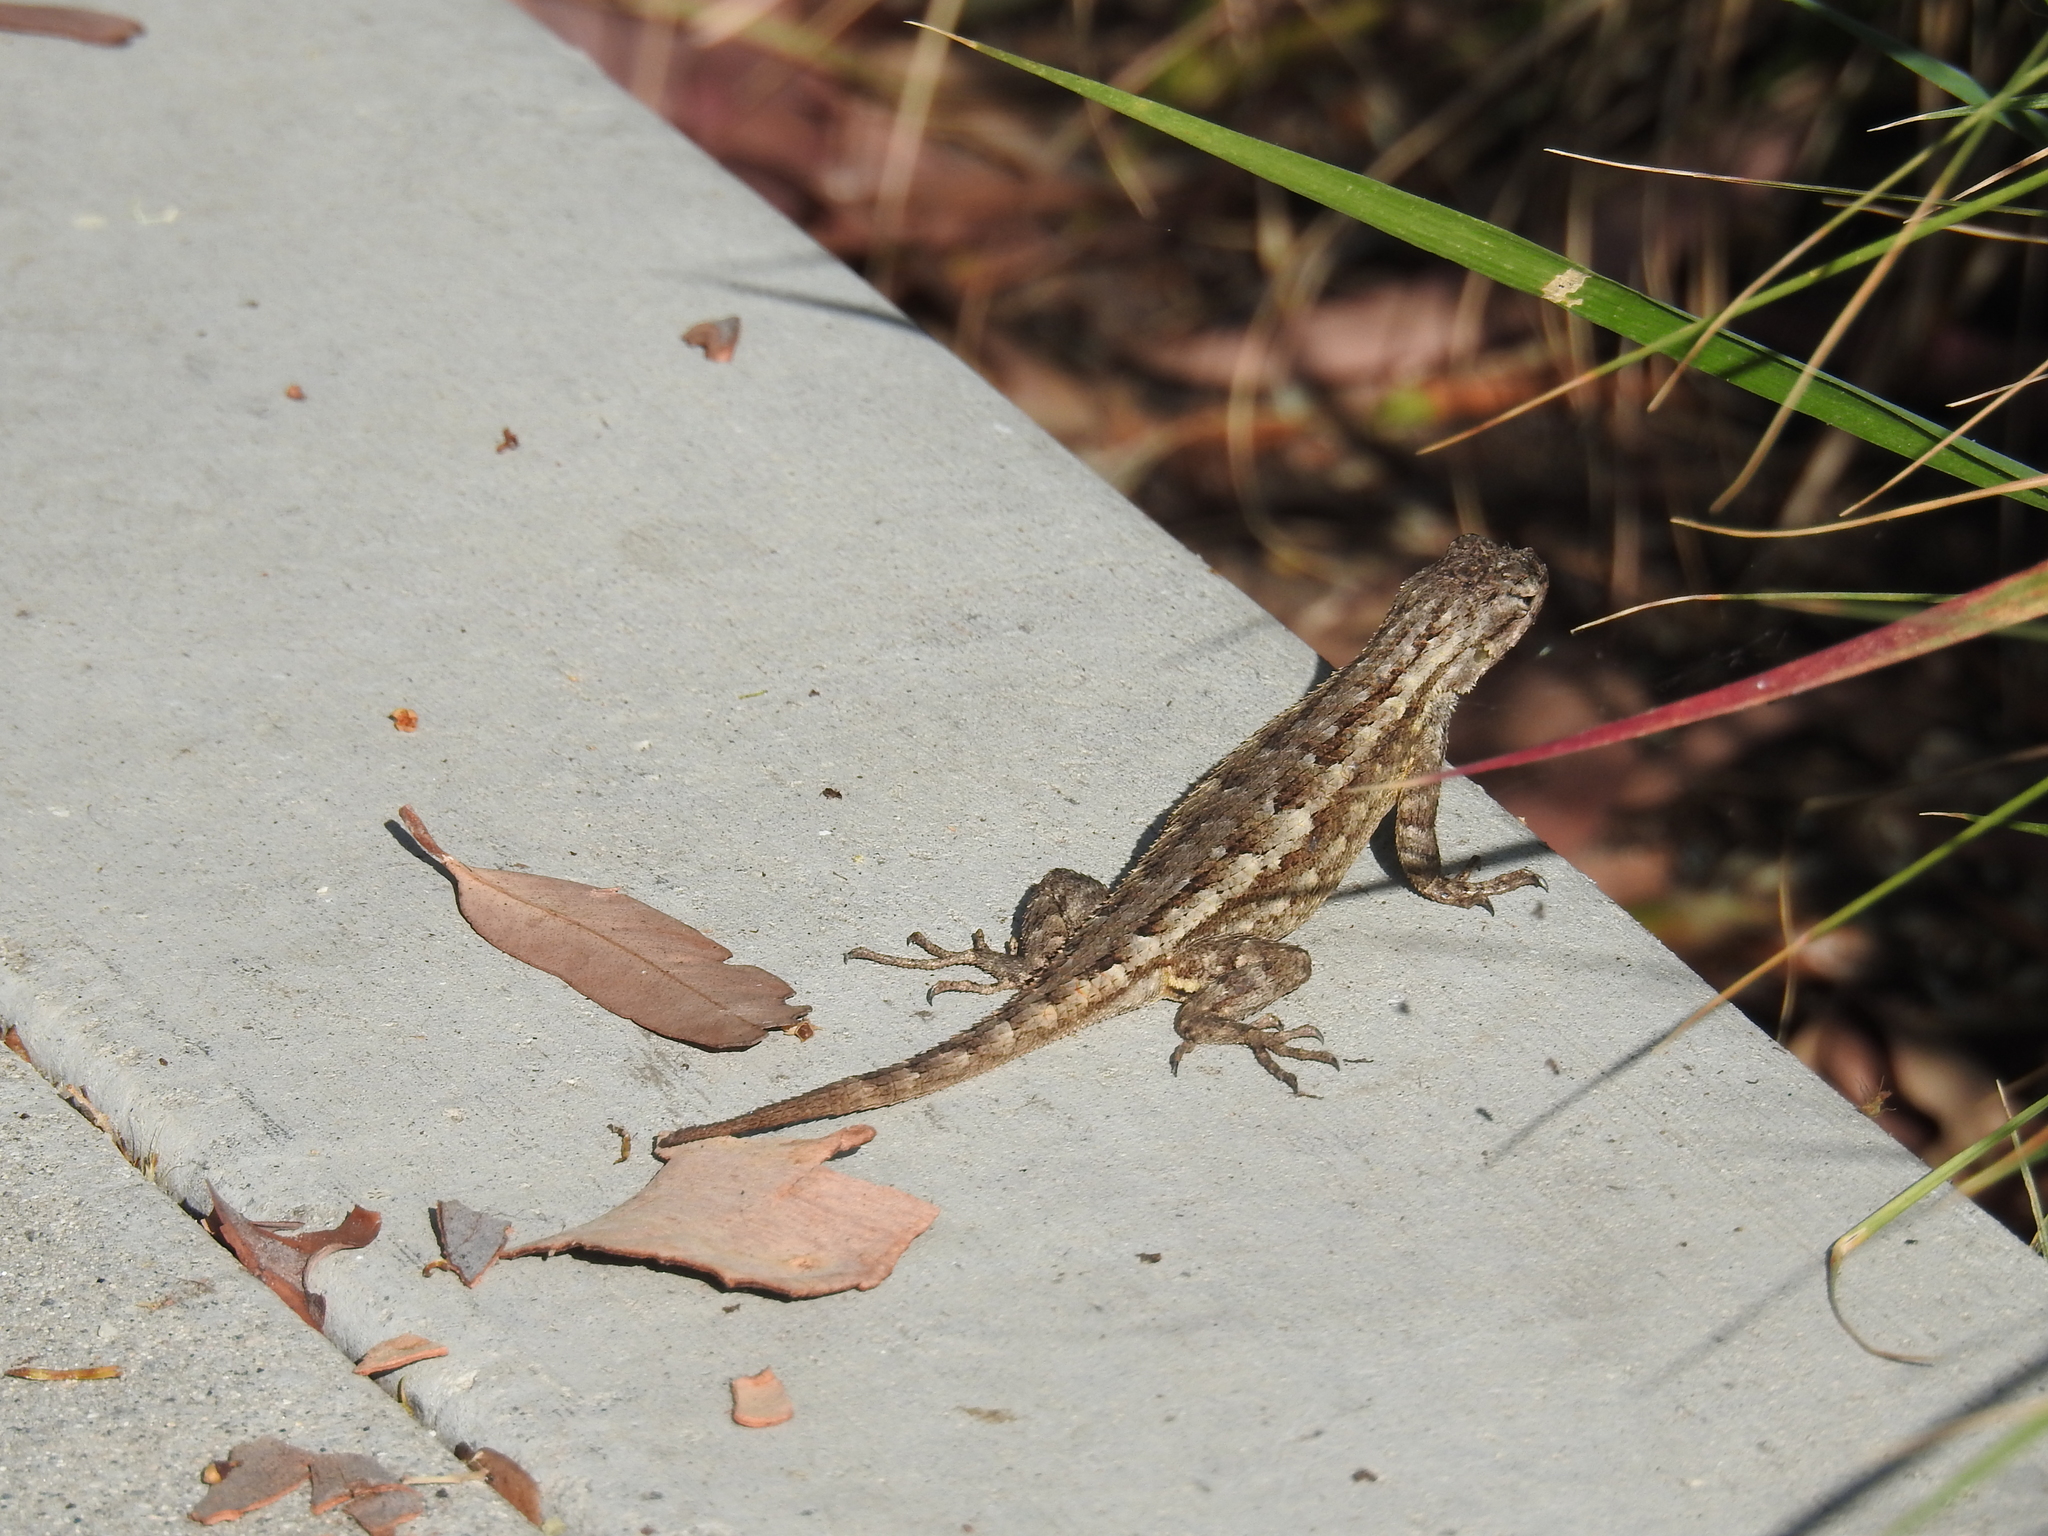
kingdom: Animalia
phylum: Chordata
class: Squamata
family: Phrynosomatidae
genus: Sceloporus
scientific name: Sceloporus occidentalis
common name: Western fence lizard
